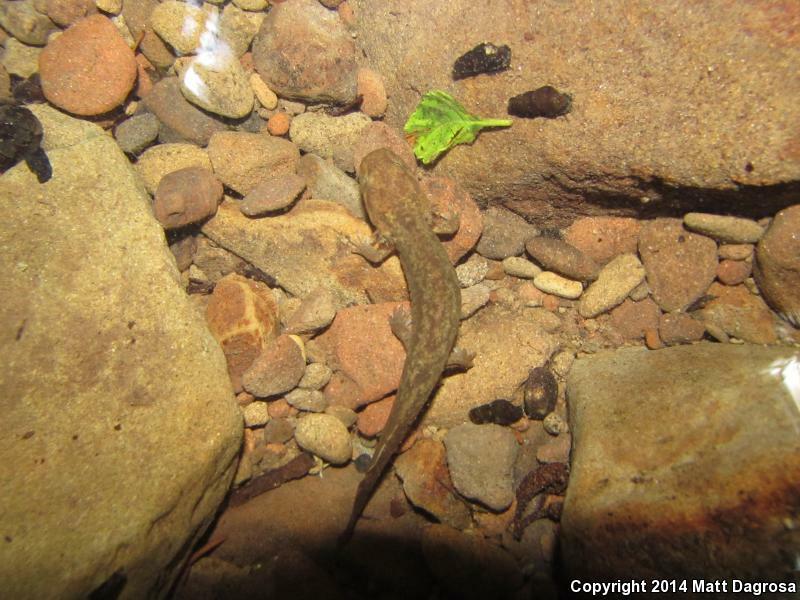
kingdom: Animalia
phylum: Chordata
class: Amphibia
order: Caudata
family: Ambystomatidae
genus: Dicamptodon
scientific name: Dicamptodon tenebrosus
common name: Coastal giant salamander
